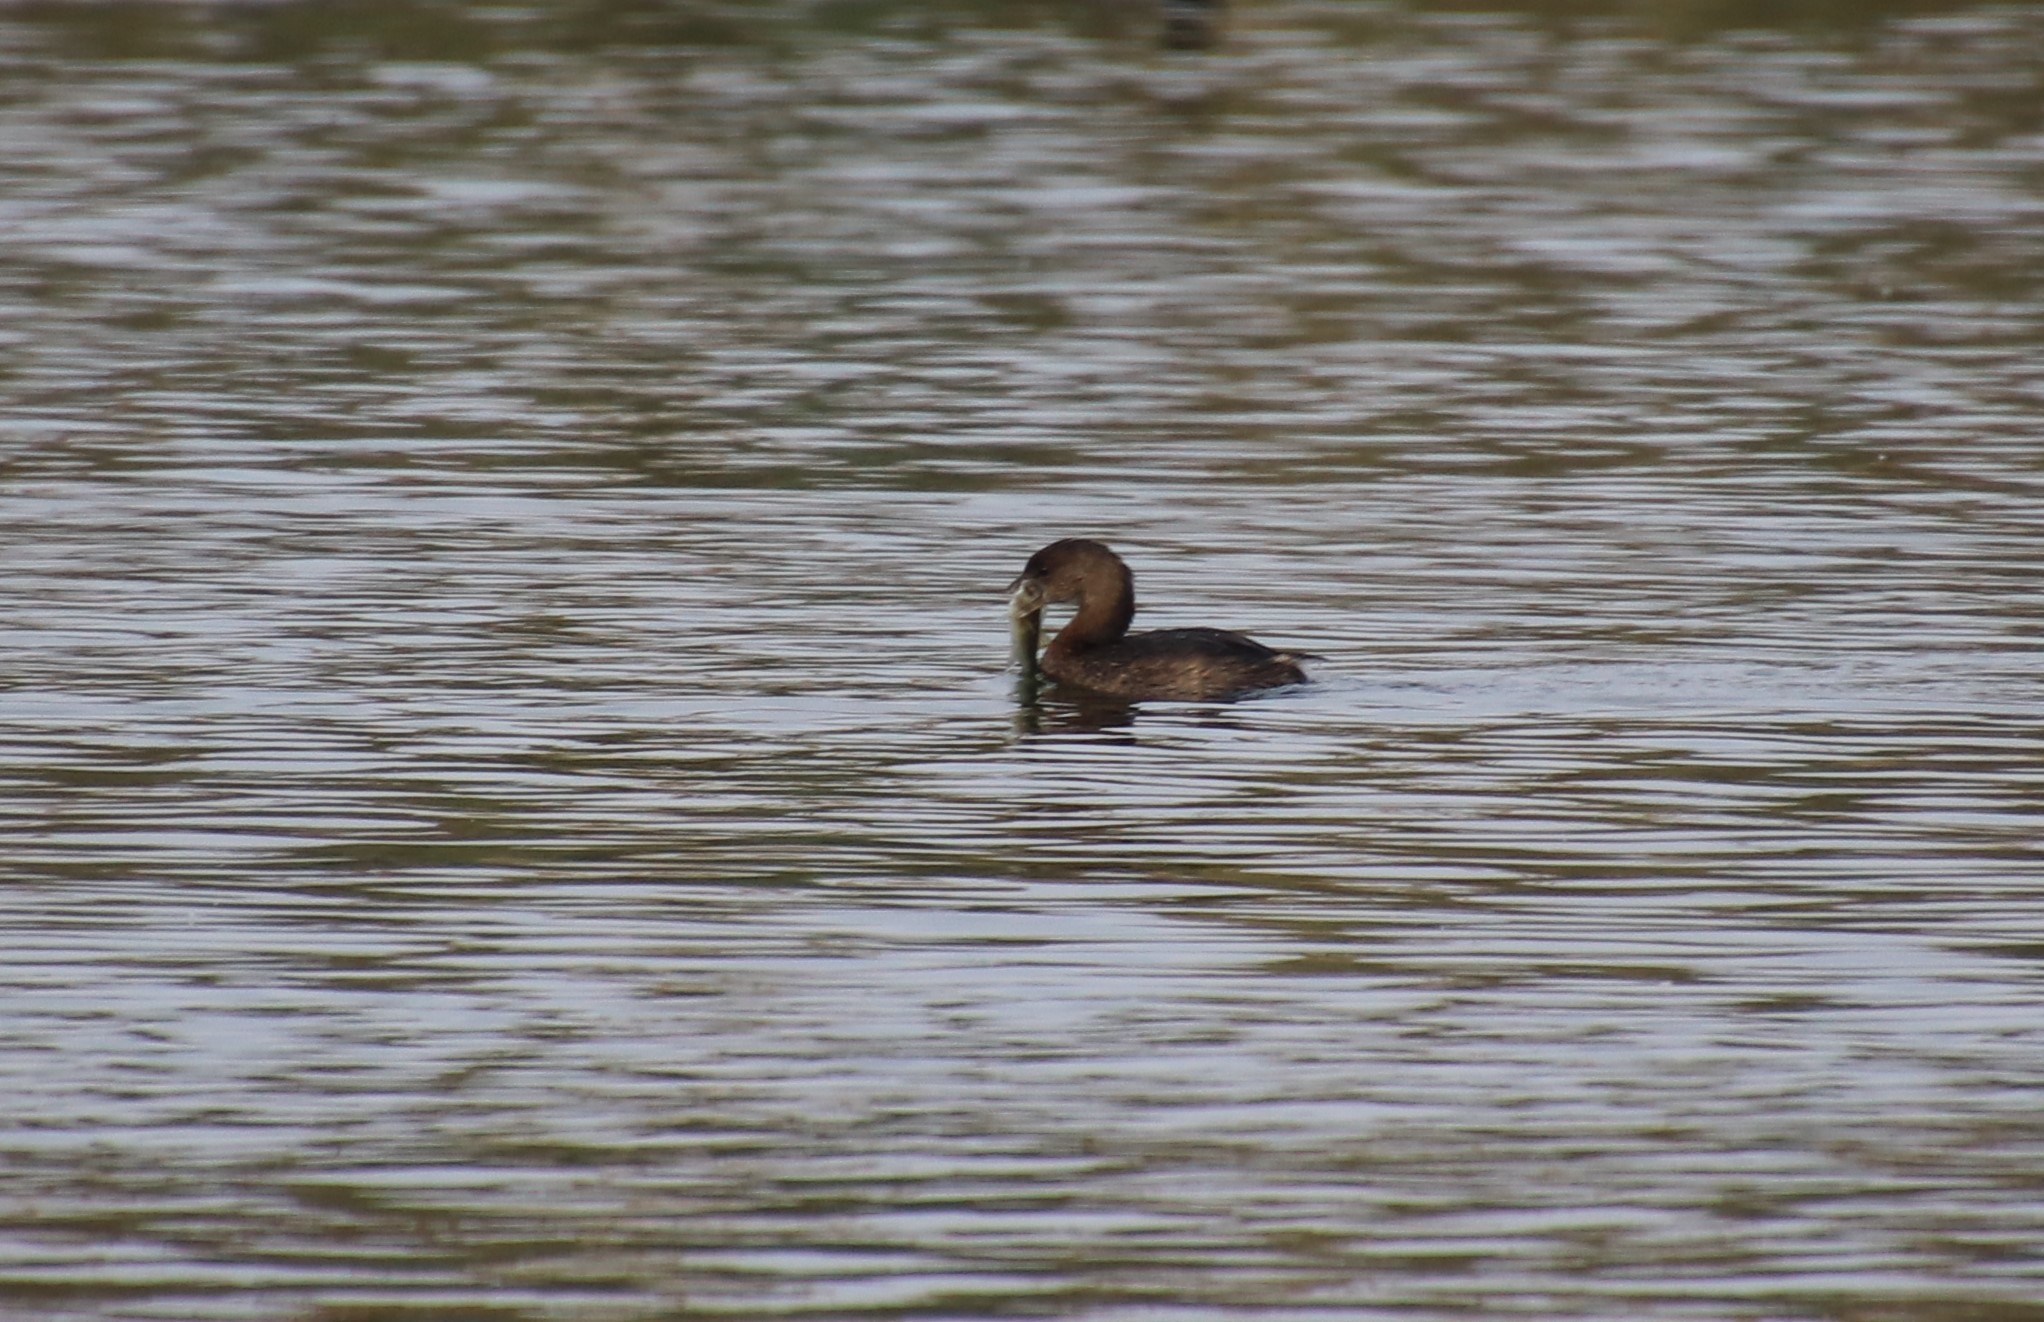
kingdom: Animalia
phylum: Chordata
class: Aves
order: Podicipediformes
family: Podicipedidae
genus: Podilymbus
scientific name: Podilymbus podiceps
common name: Pied-billed grebe
